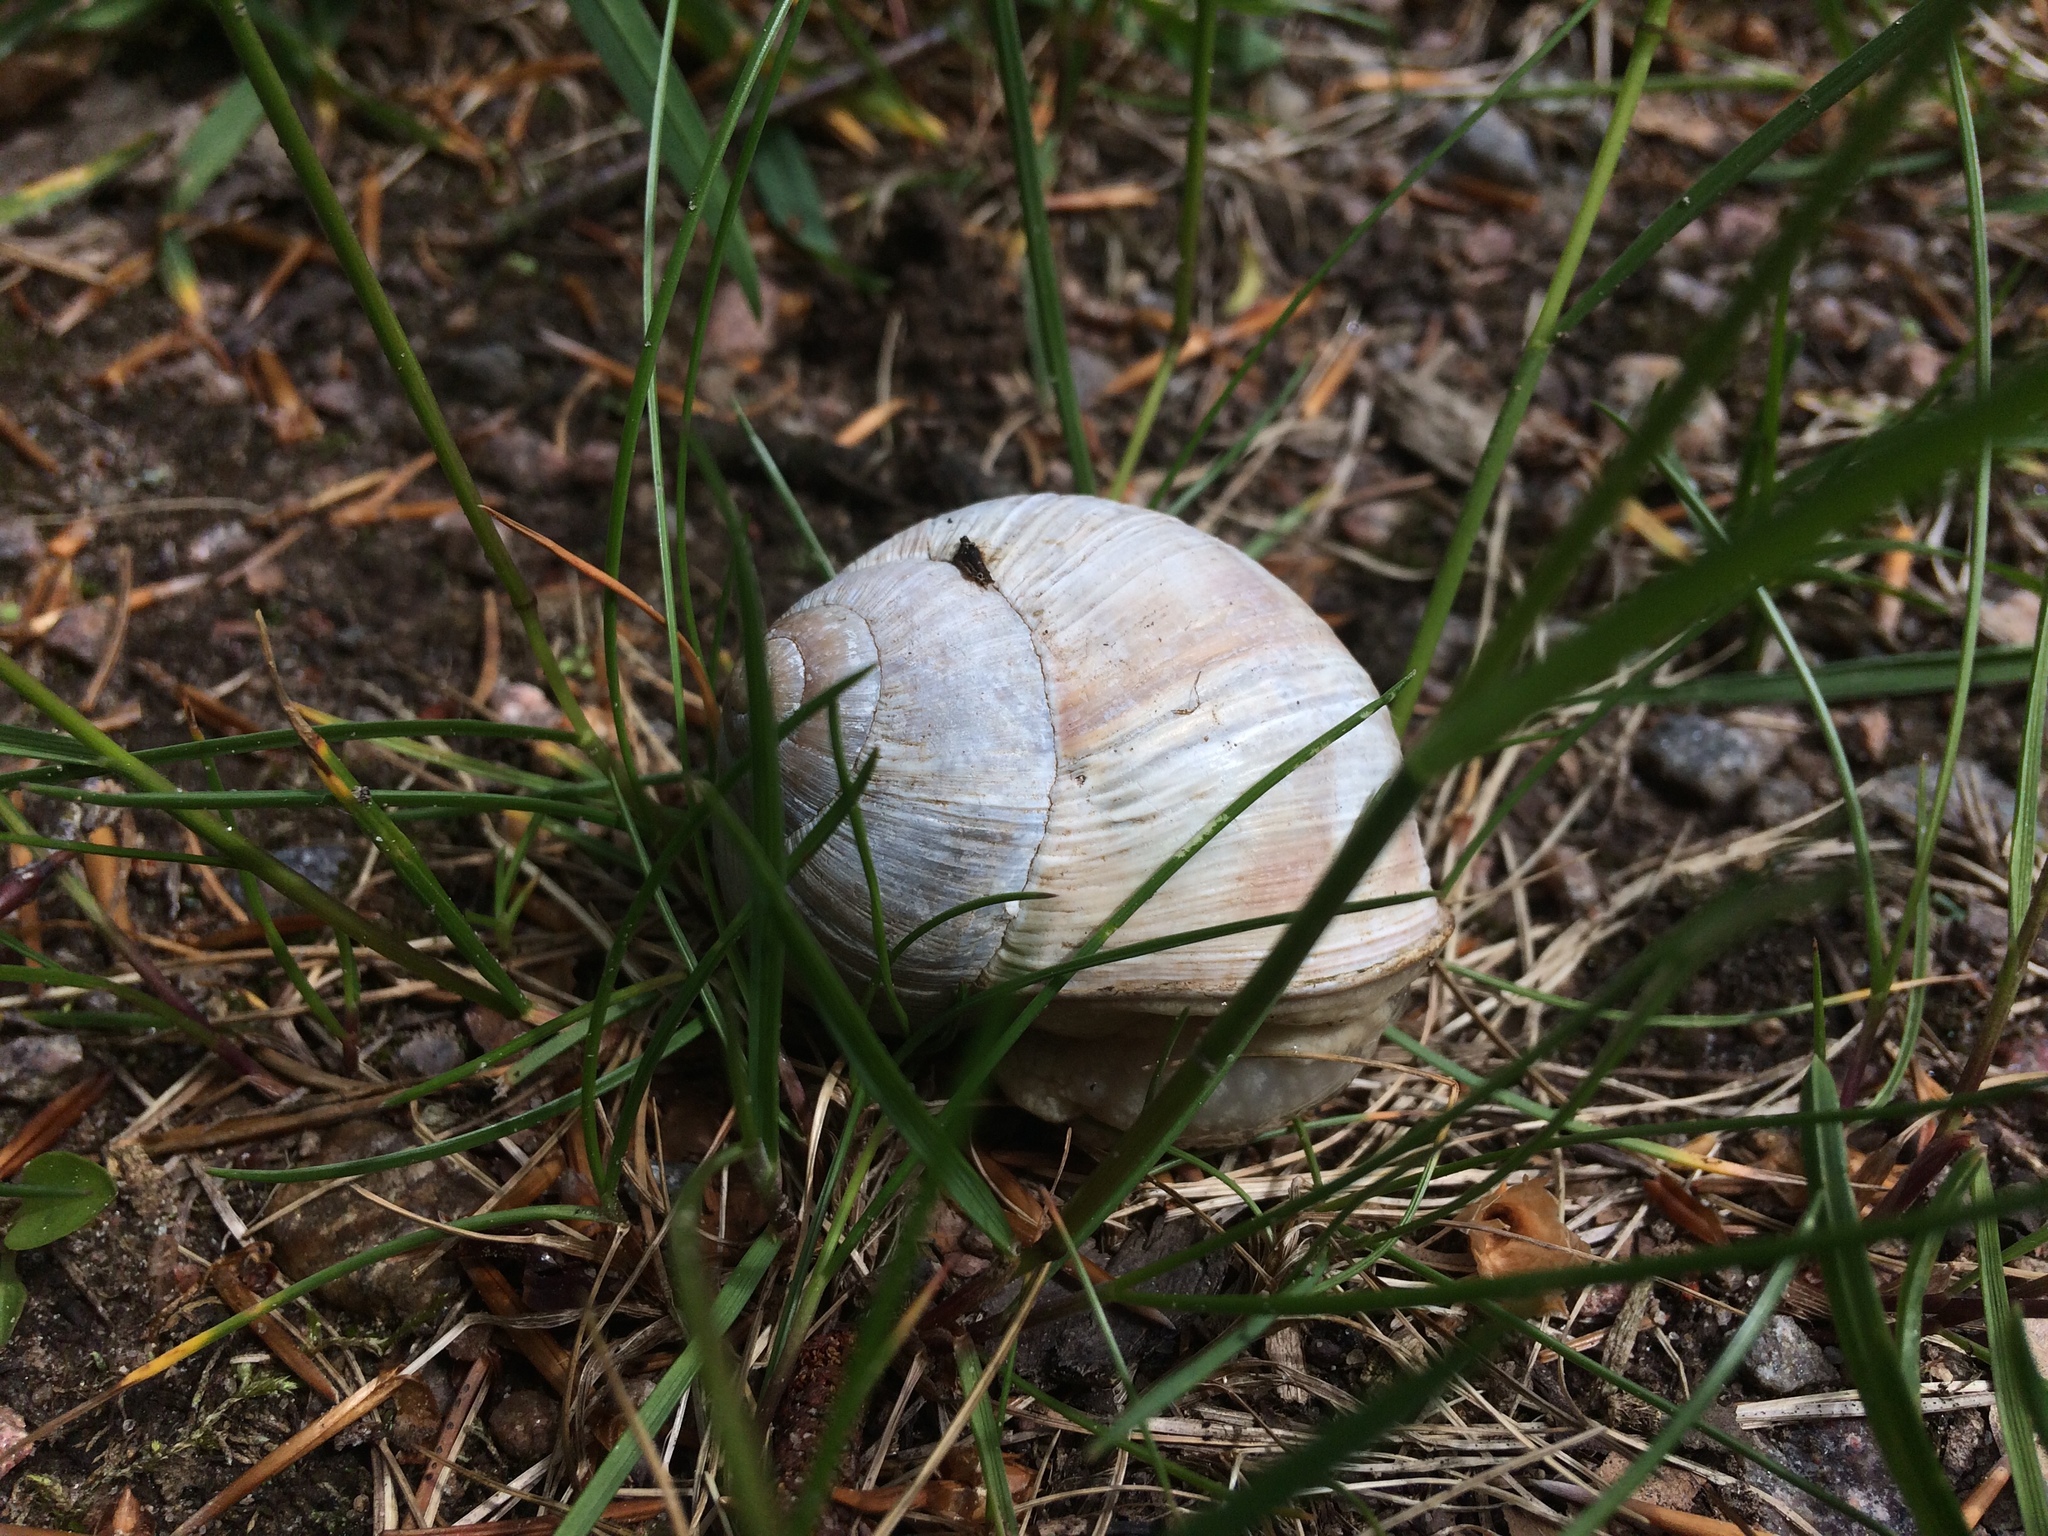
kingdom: Animalia
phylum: Mollusca
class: Gastropoda
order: Stylommatophora
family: Helicidae
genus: Helix
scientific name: Helix pomatia
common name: Roman snail
